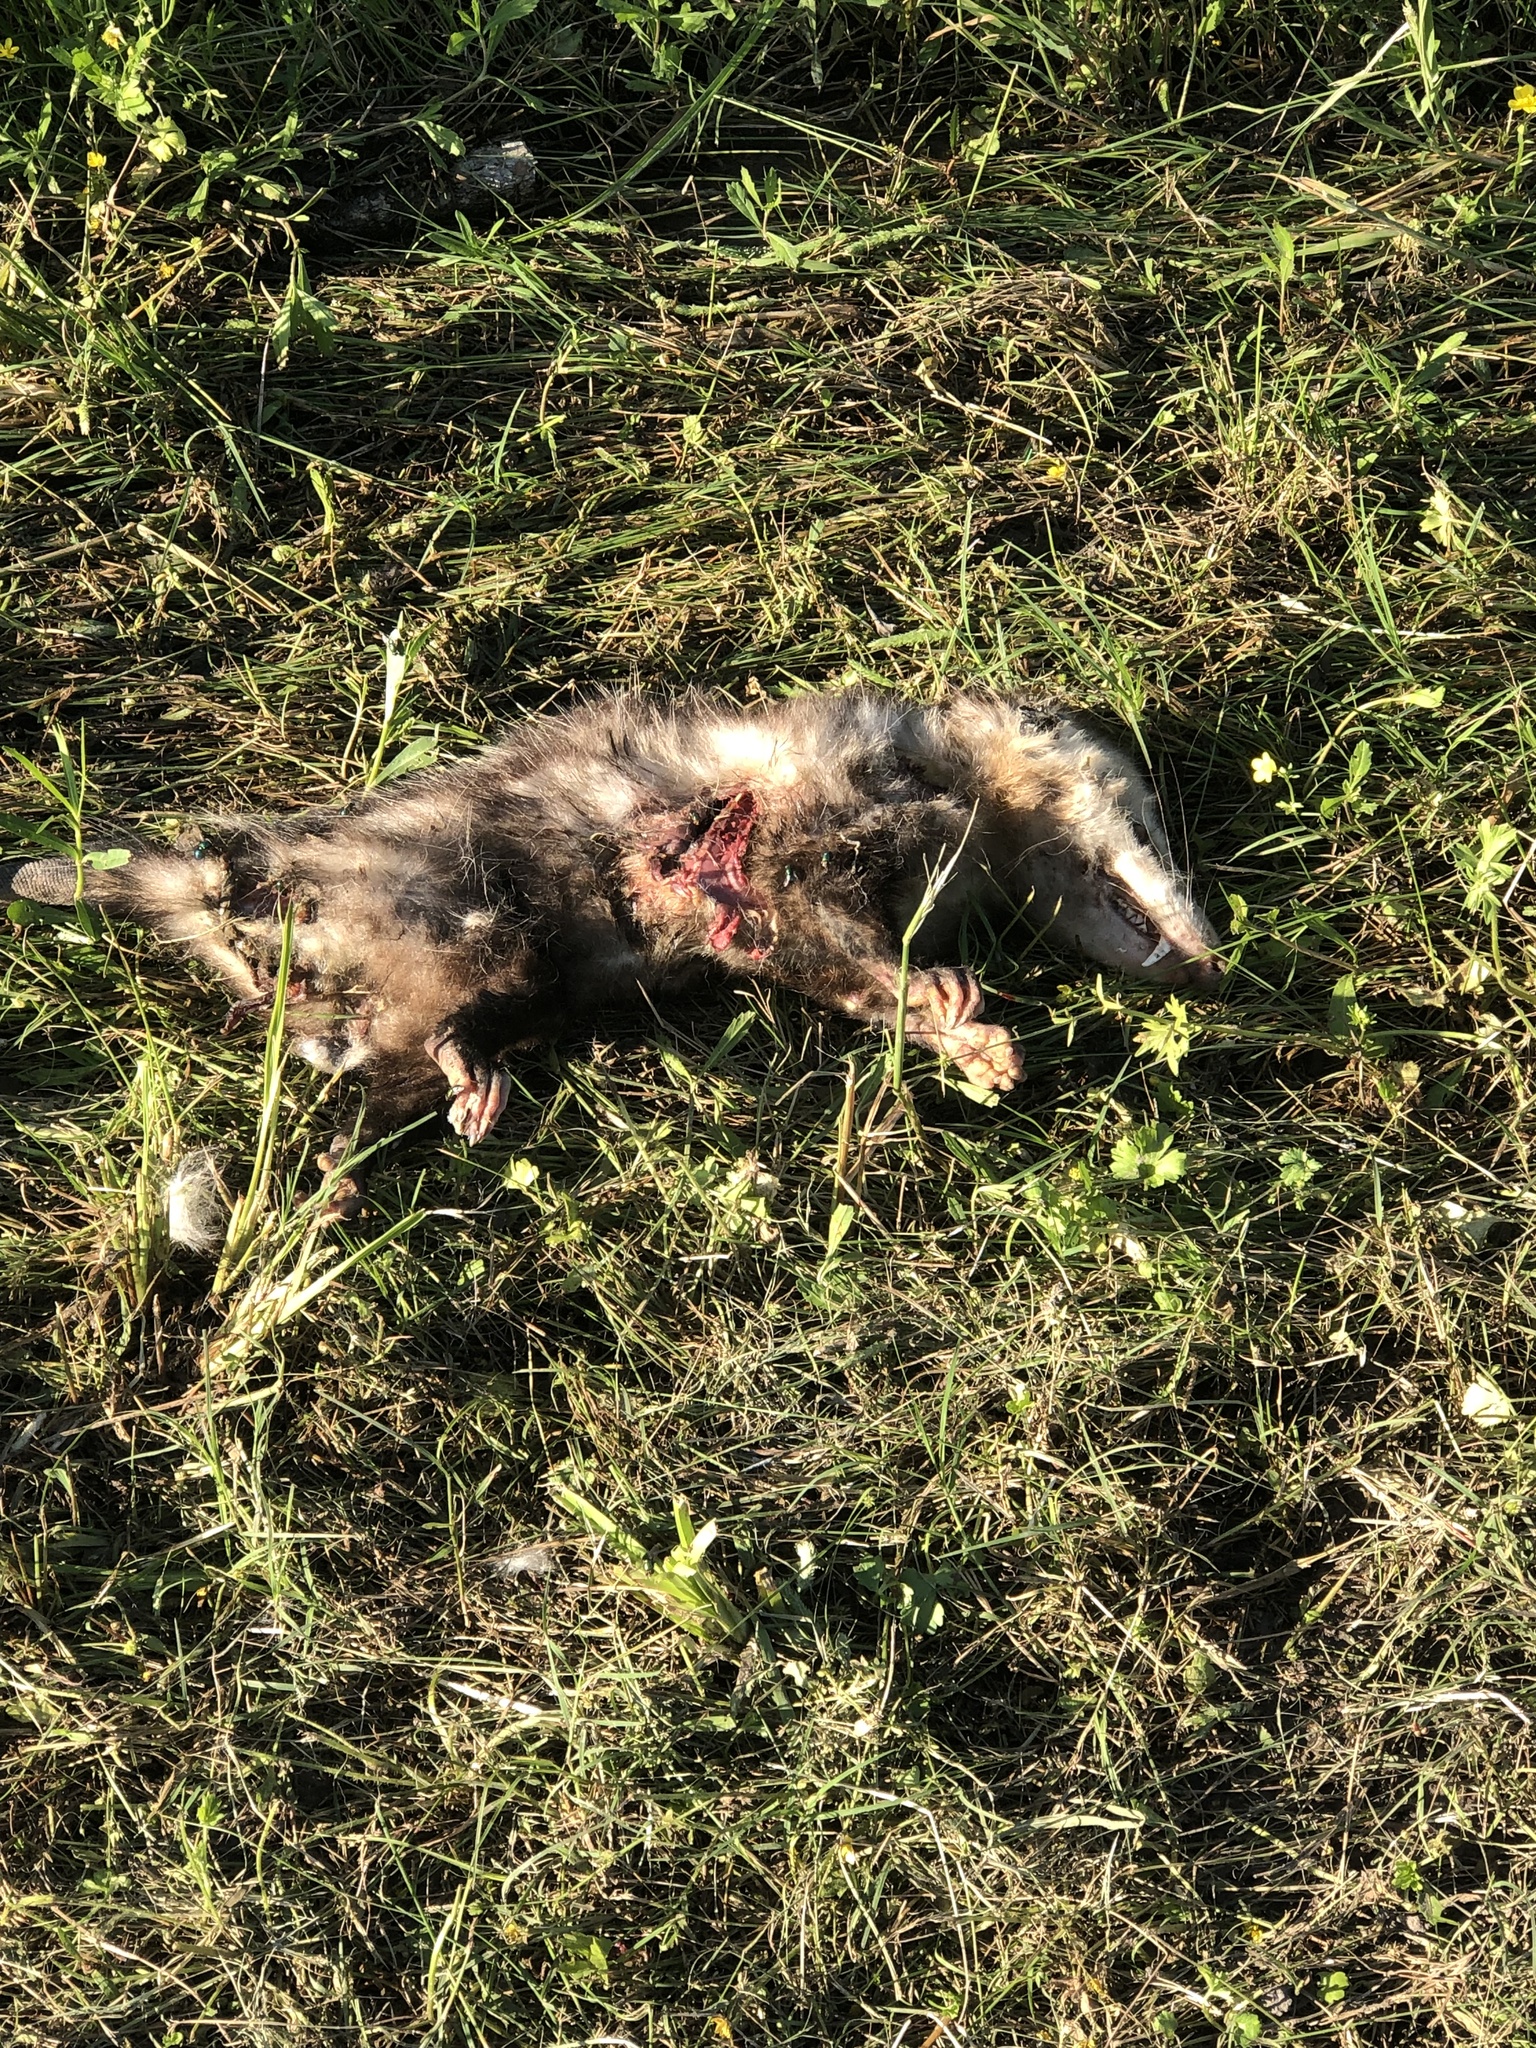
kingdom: Animalia
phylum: Chordata
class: Mammalia
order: Didelphimorphia
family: Didelphidae
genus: Didelphis
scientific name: Didelphis virginiana
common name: Virginia opossum
